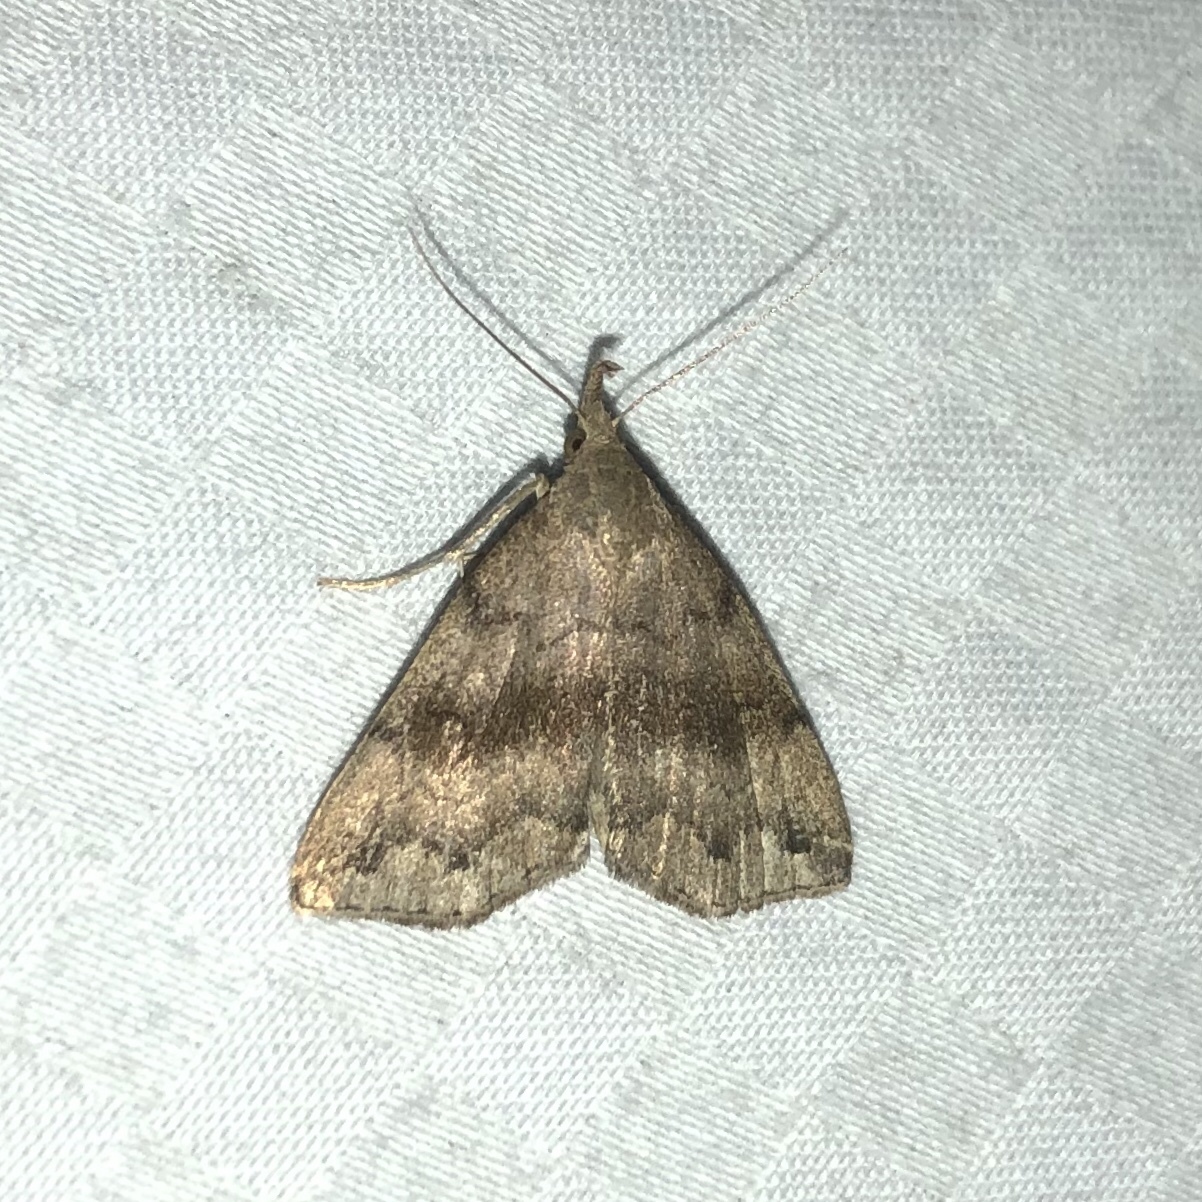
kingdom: Animalia
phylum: Arthropoda
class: Insecta
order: Lepidoptera
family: Erebidae
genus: Phalaenostola
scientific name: Phalaenostola eumelusalis
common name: Dark phalaenostola moth
